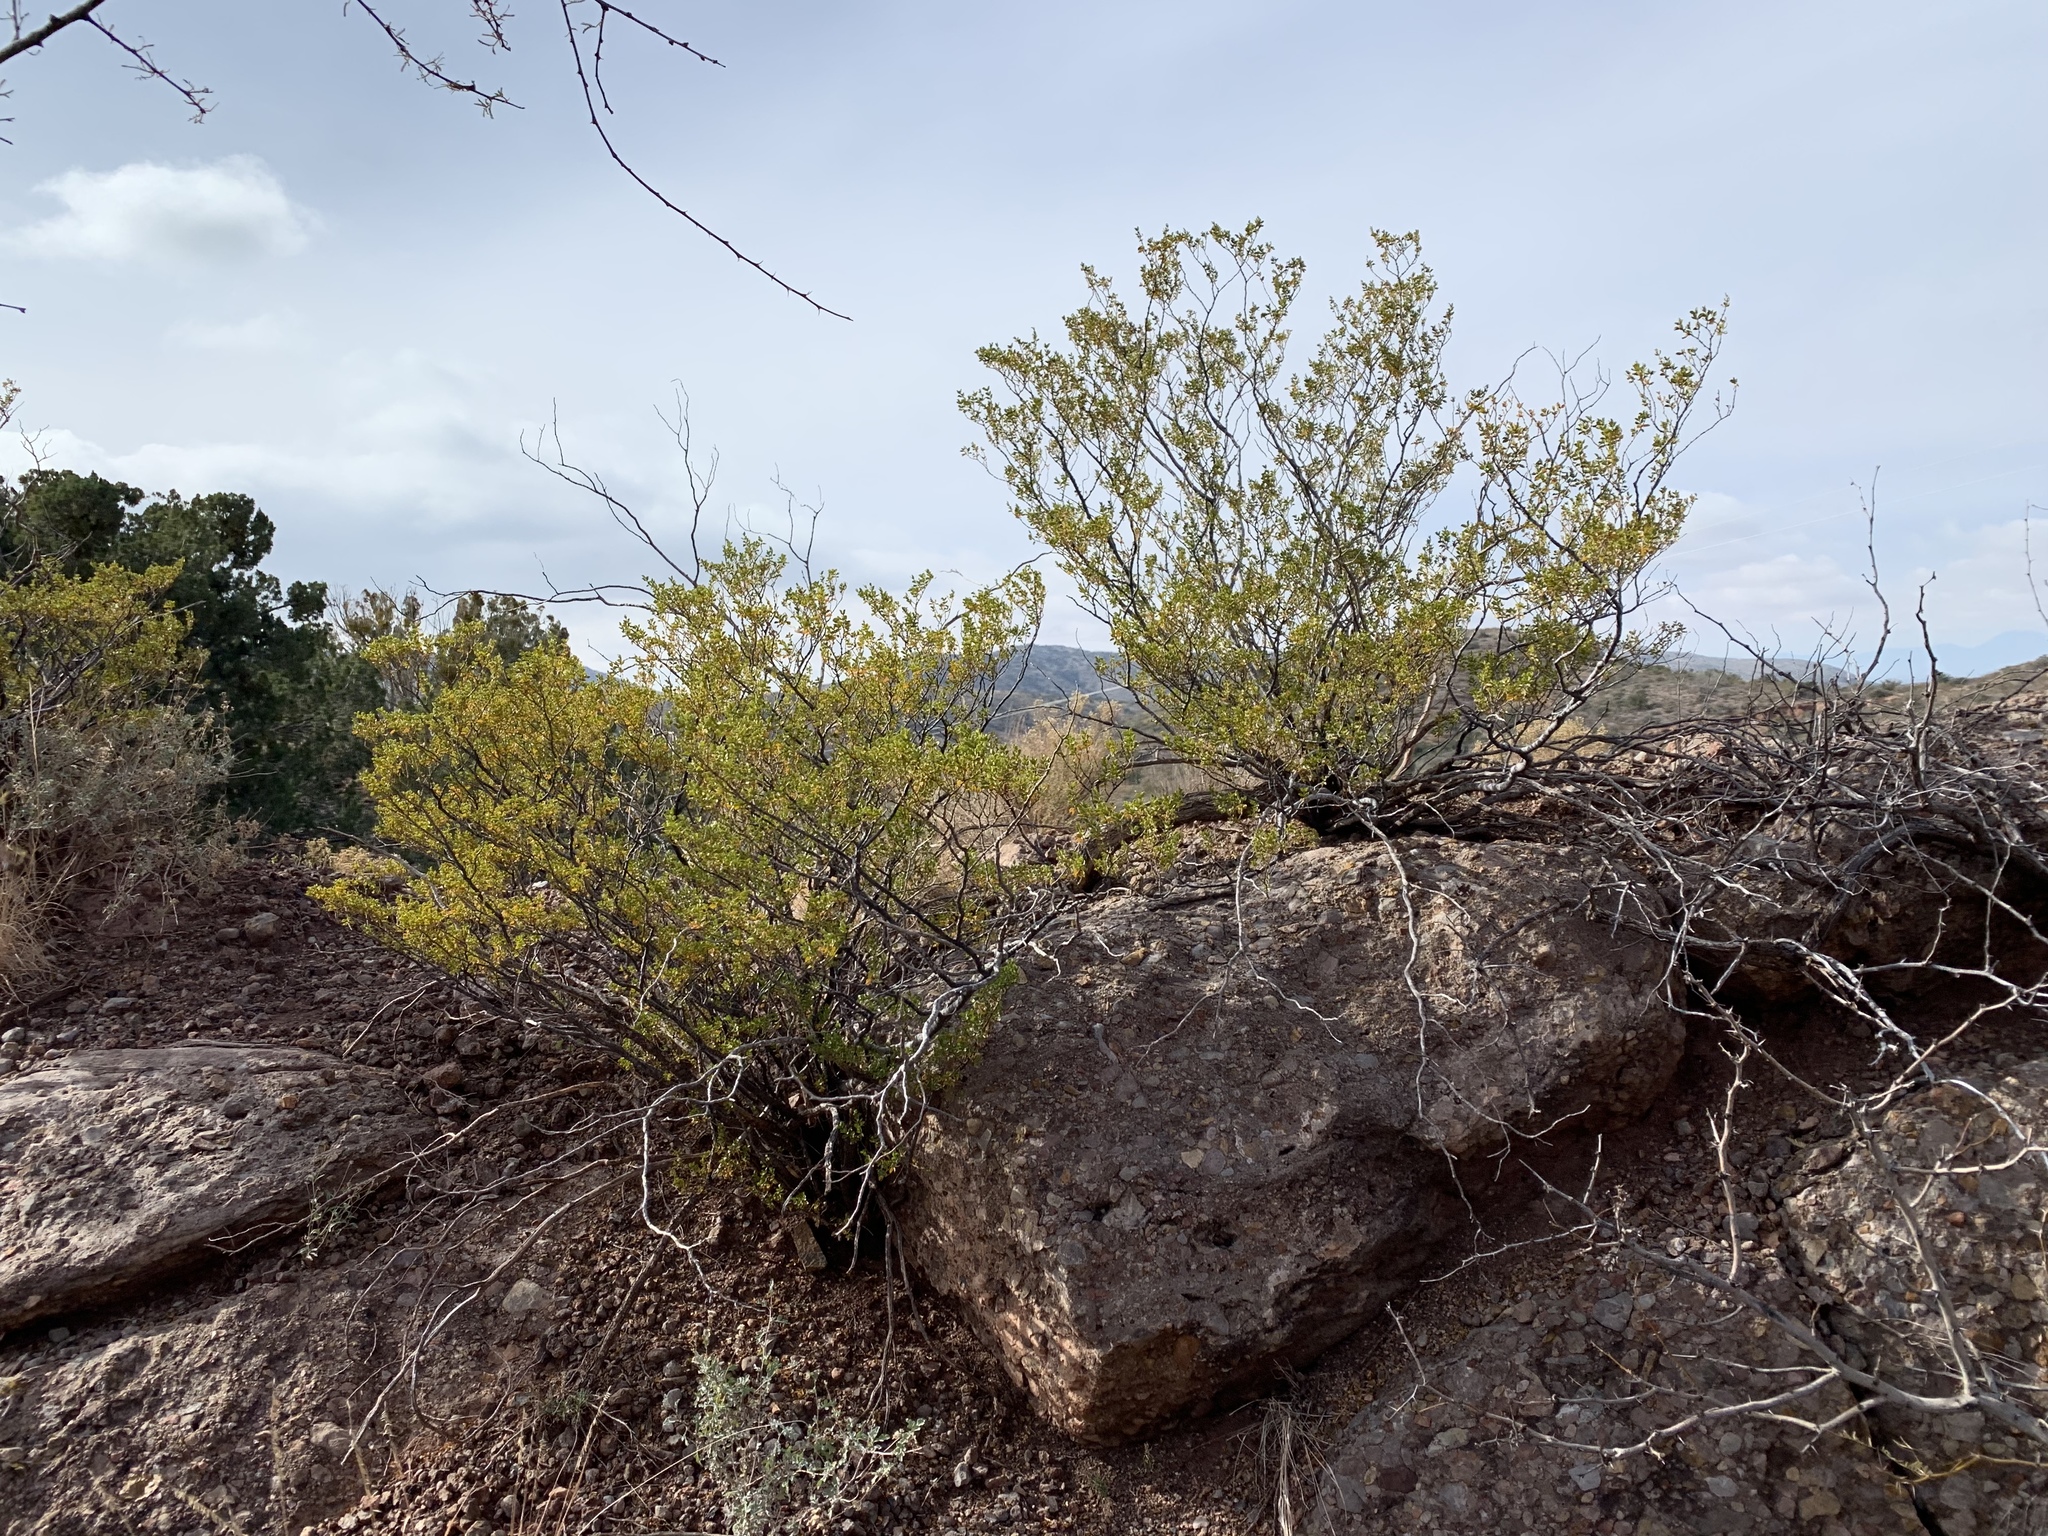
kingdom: Plantae
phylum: Tracheophyta
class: Magnoliopsida
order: Zygophyllales
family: Zygophyllaceae
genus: Larrea
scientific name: Larrea tridentata
